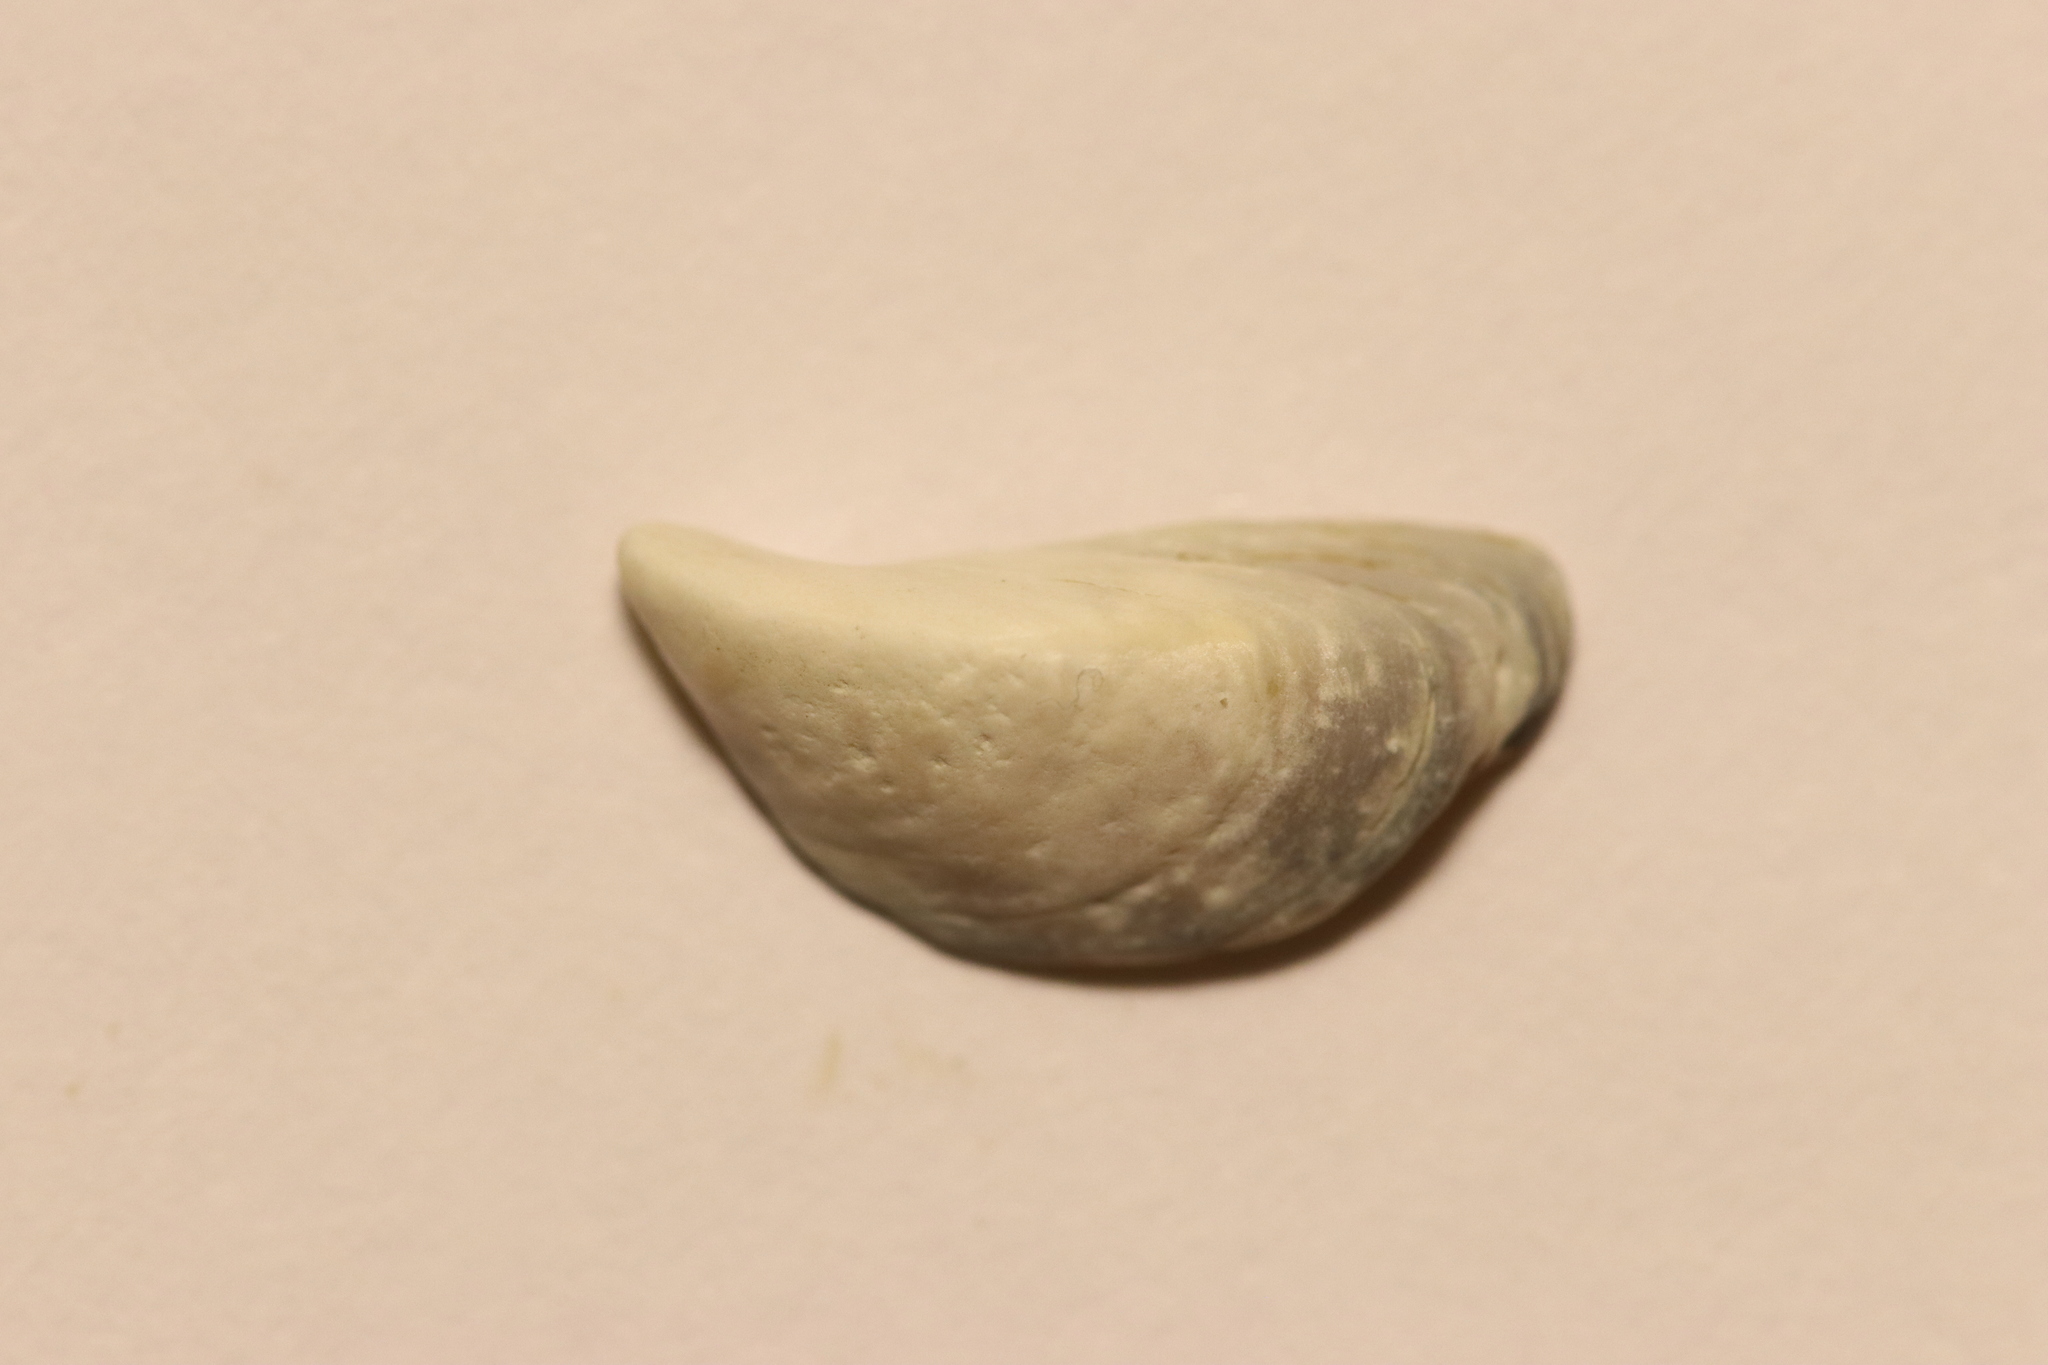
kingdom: Animalia
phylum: Mollusca
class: Bivalvia
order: Myida
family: Dreissenidae
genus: Dreissena
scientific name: Dreissena polymorpha
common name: Zebra mussel
